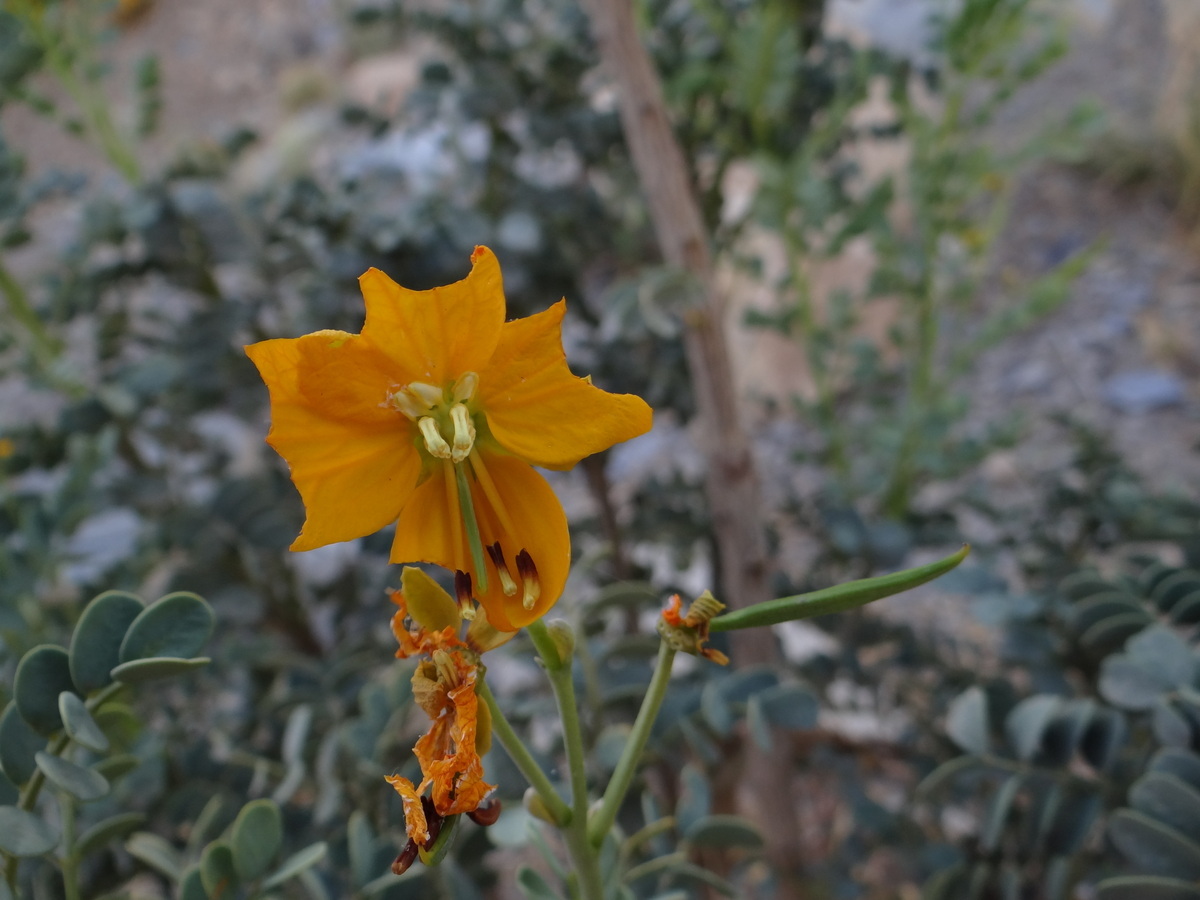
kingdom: Plantae
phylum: Tracheophyta
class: Magnoliopsida
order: Fabales
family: Fabaceae
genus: Senna
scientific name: Senna arnottiana
